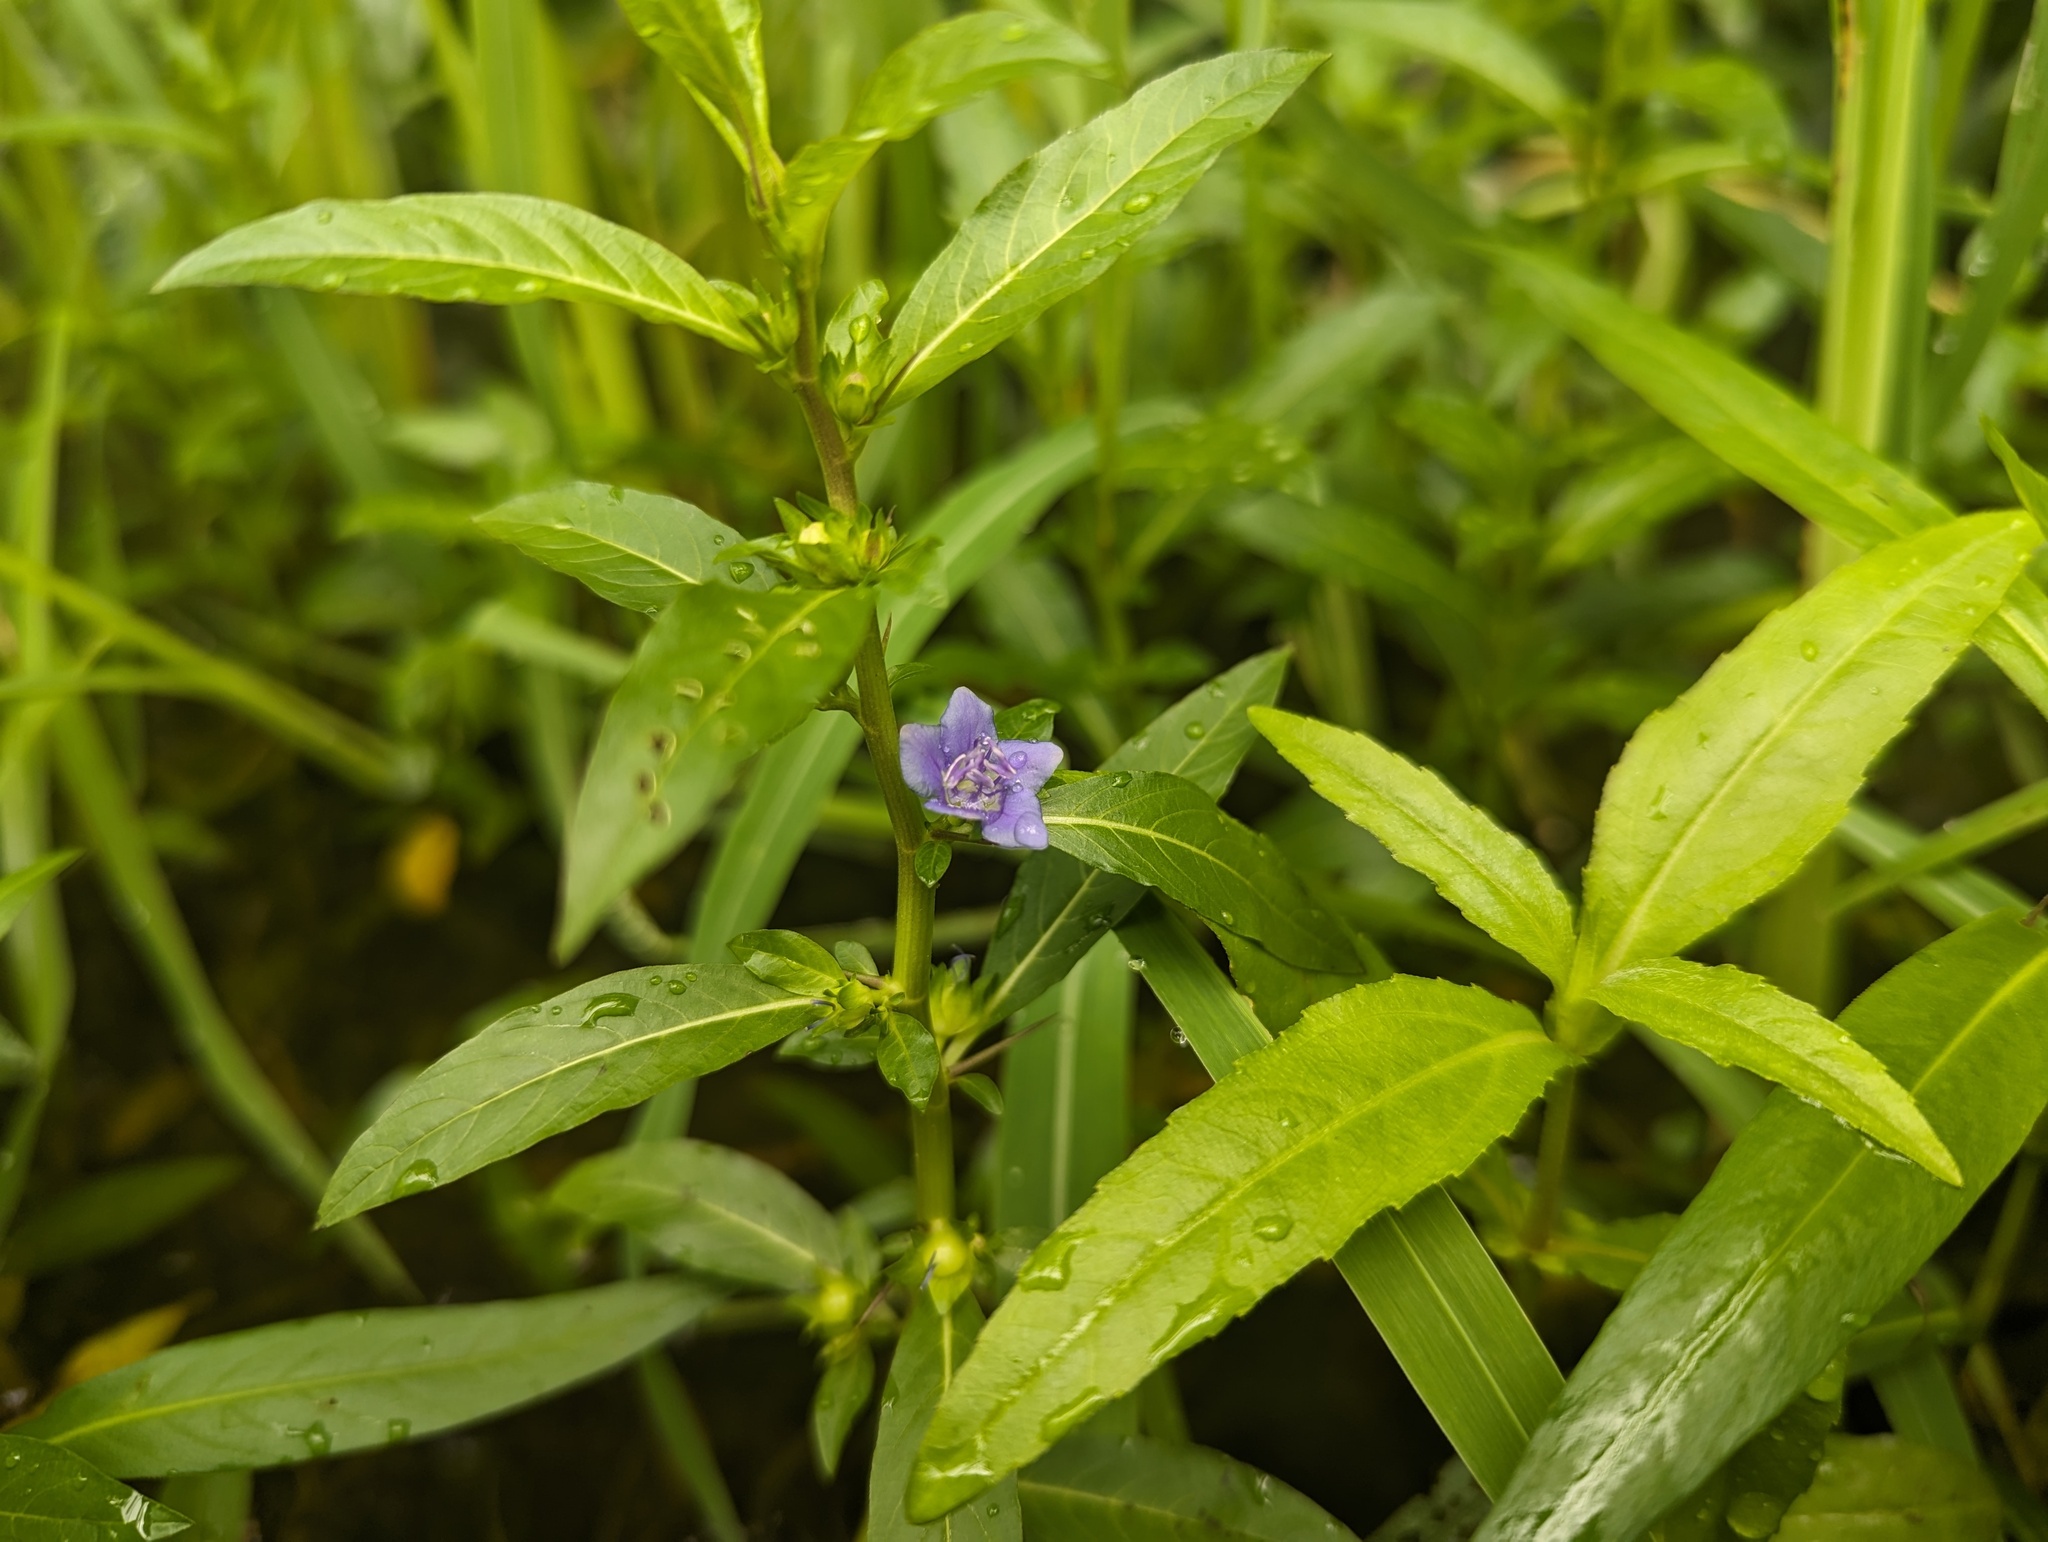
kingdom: Plantae
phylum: Tracheophyta
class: Magnoliopsida
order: Solanales
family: Hydroleaceae
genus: Hydrolea
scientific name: Hydrolea uniflora
